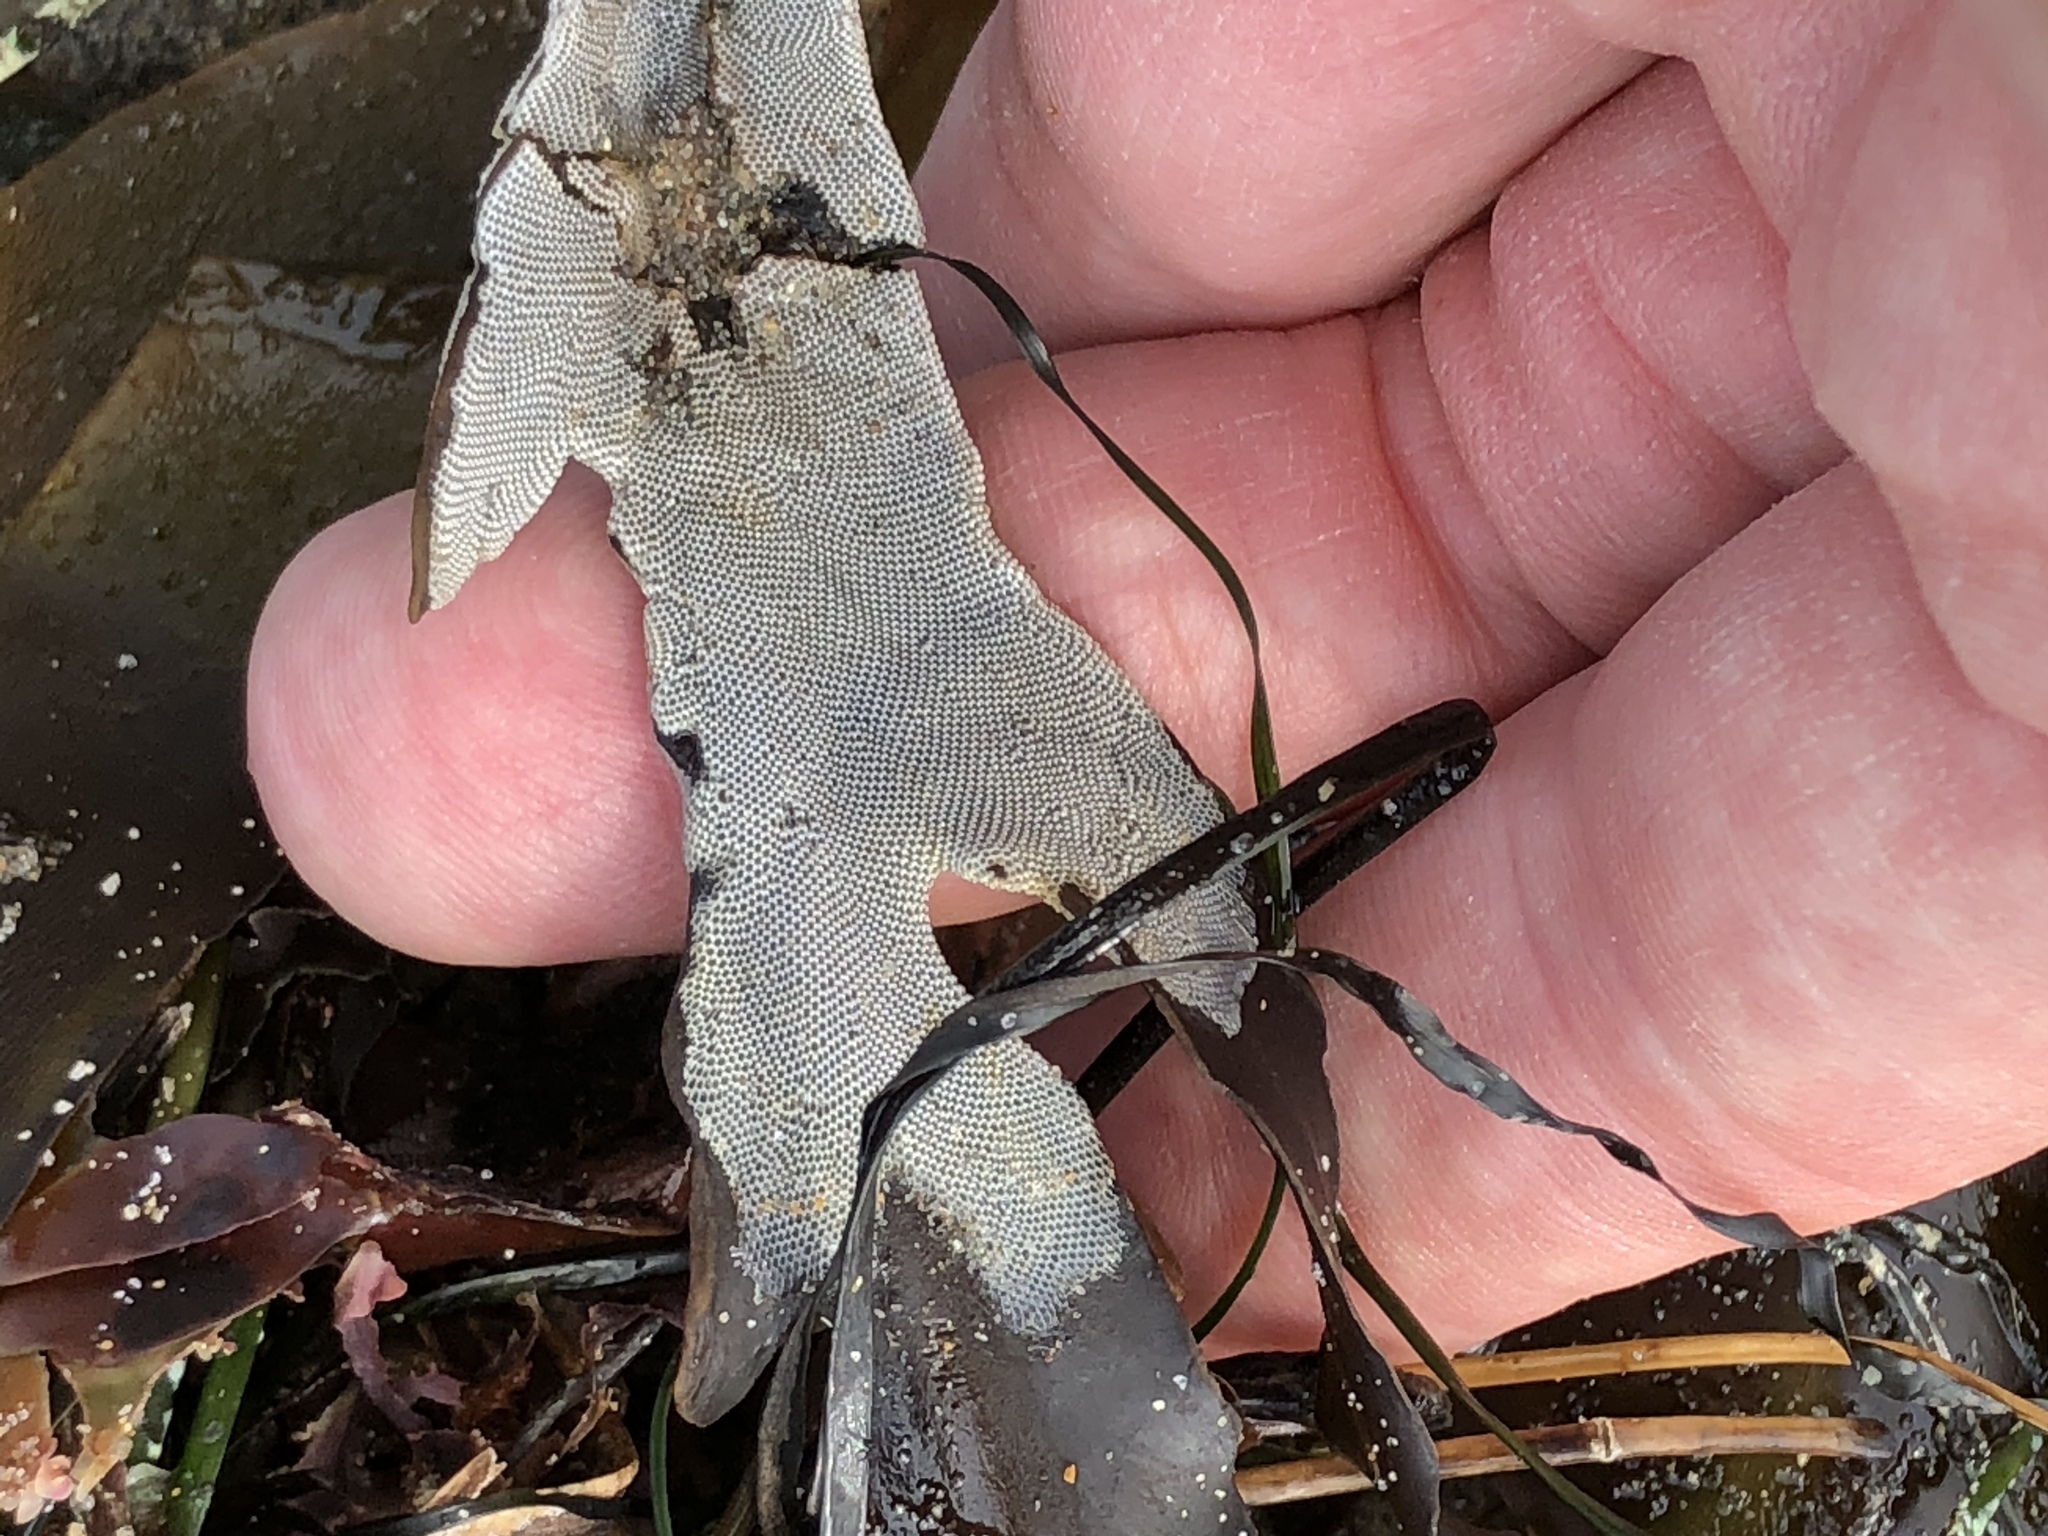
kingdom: Animalia
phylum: Bryozoa
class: Gymnolaemata
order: Cheilostomatida
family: Membraniporidae
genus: Jellyella
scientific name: Jellyella tuberculata
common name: Sargassum bryozoan
